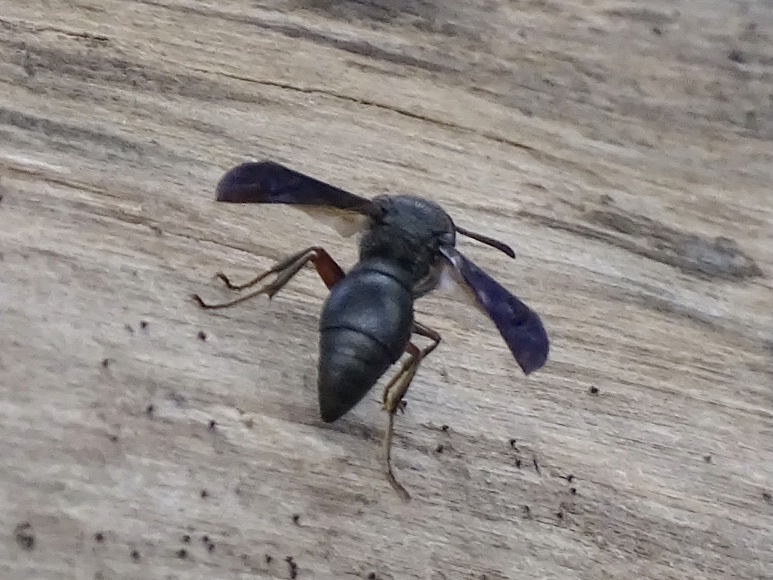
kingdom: Animalia
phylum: Arthropoda
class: Insecta
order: Hymenoptera
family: Eumenidae
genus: Orancistrocerus
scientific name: Orancistrocerus aterrimus
